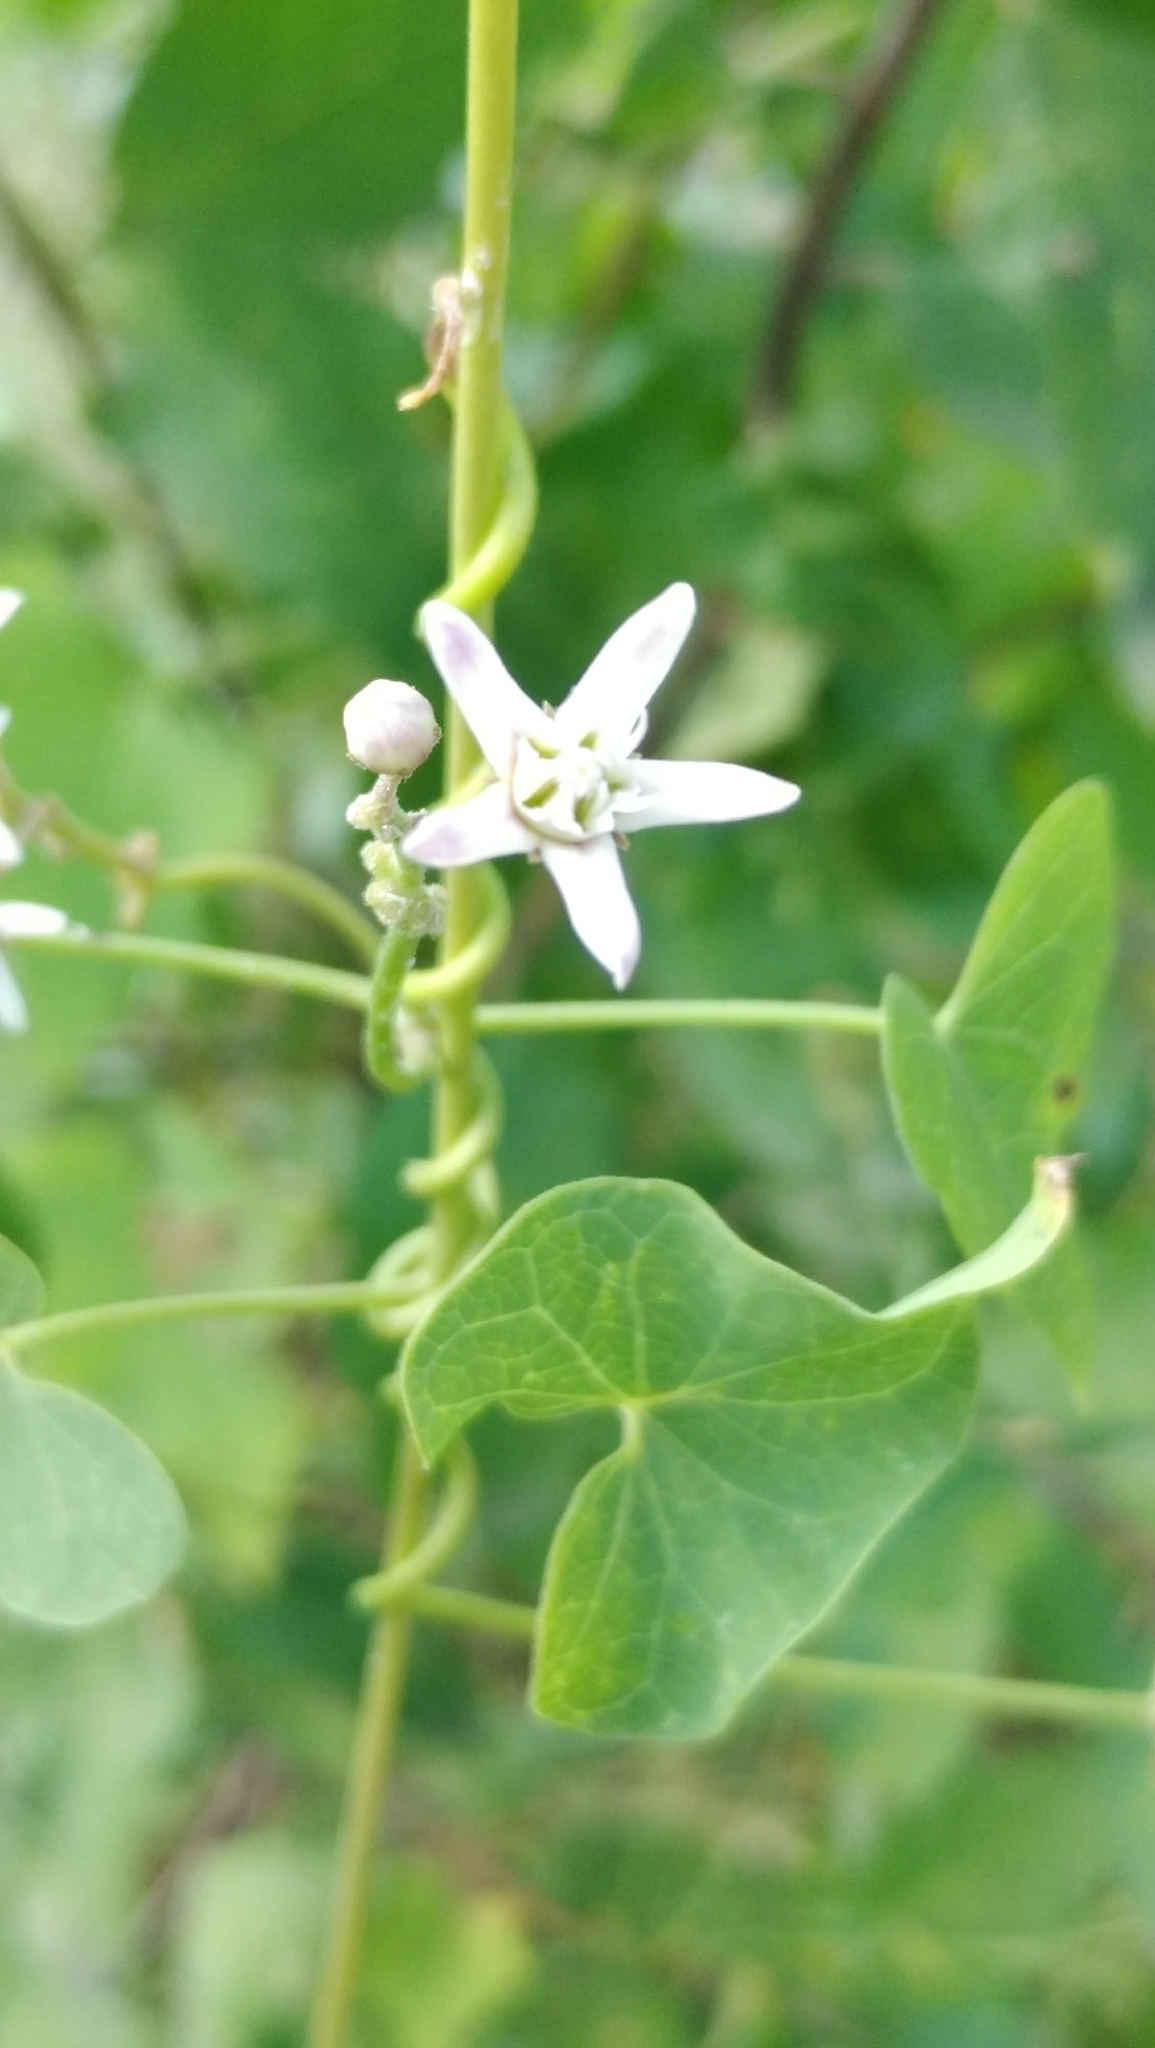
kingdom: Plantae
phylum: Tracheophyta
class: Magnoliopsida
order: Gentianales
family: Apocynaceae
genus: Cynanchum
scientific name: Cynanchum acutum
